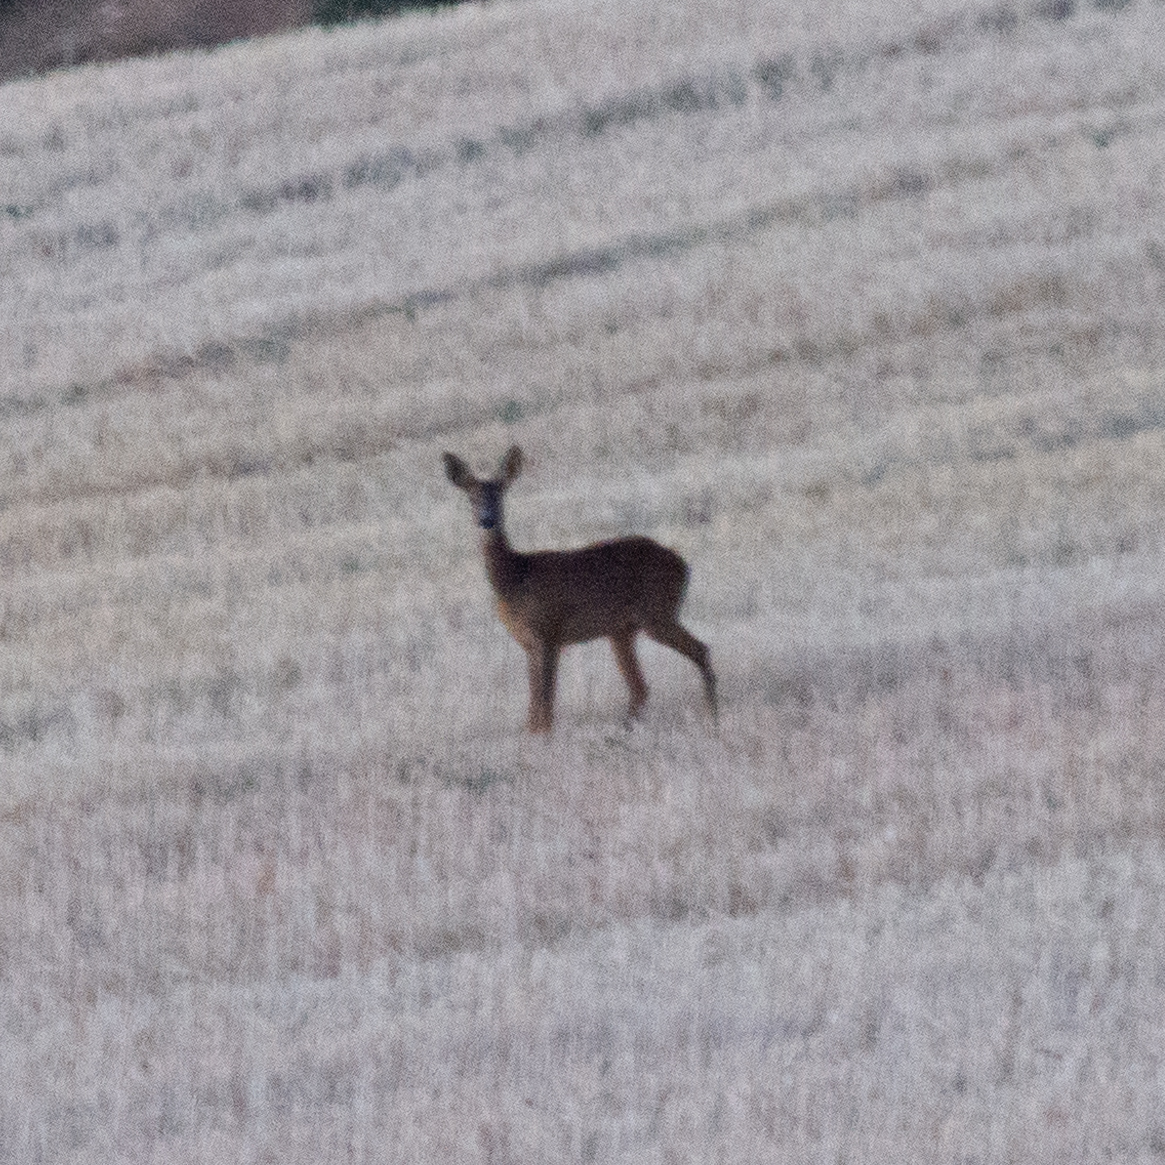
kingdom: Animalia
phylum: Chordata
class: Mammalia
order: Artiodactyla
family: Cervidae
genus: Capreolus
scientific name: Capreolus capreolus
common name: Western roe deer
